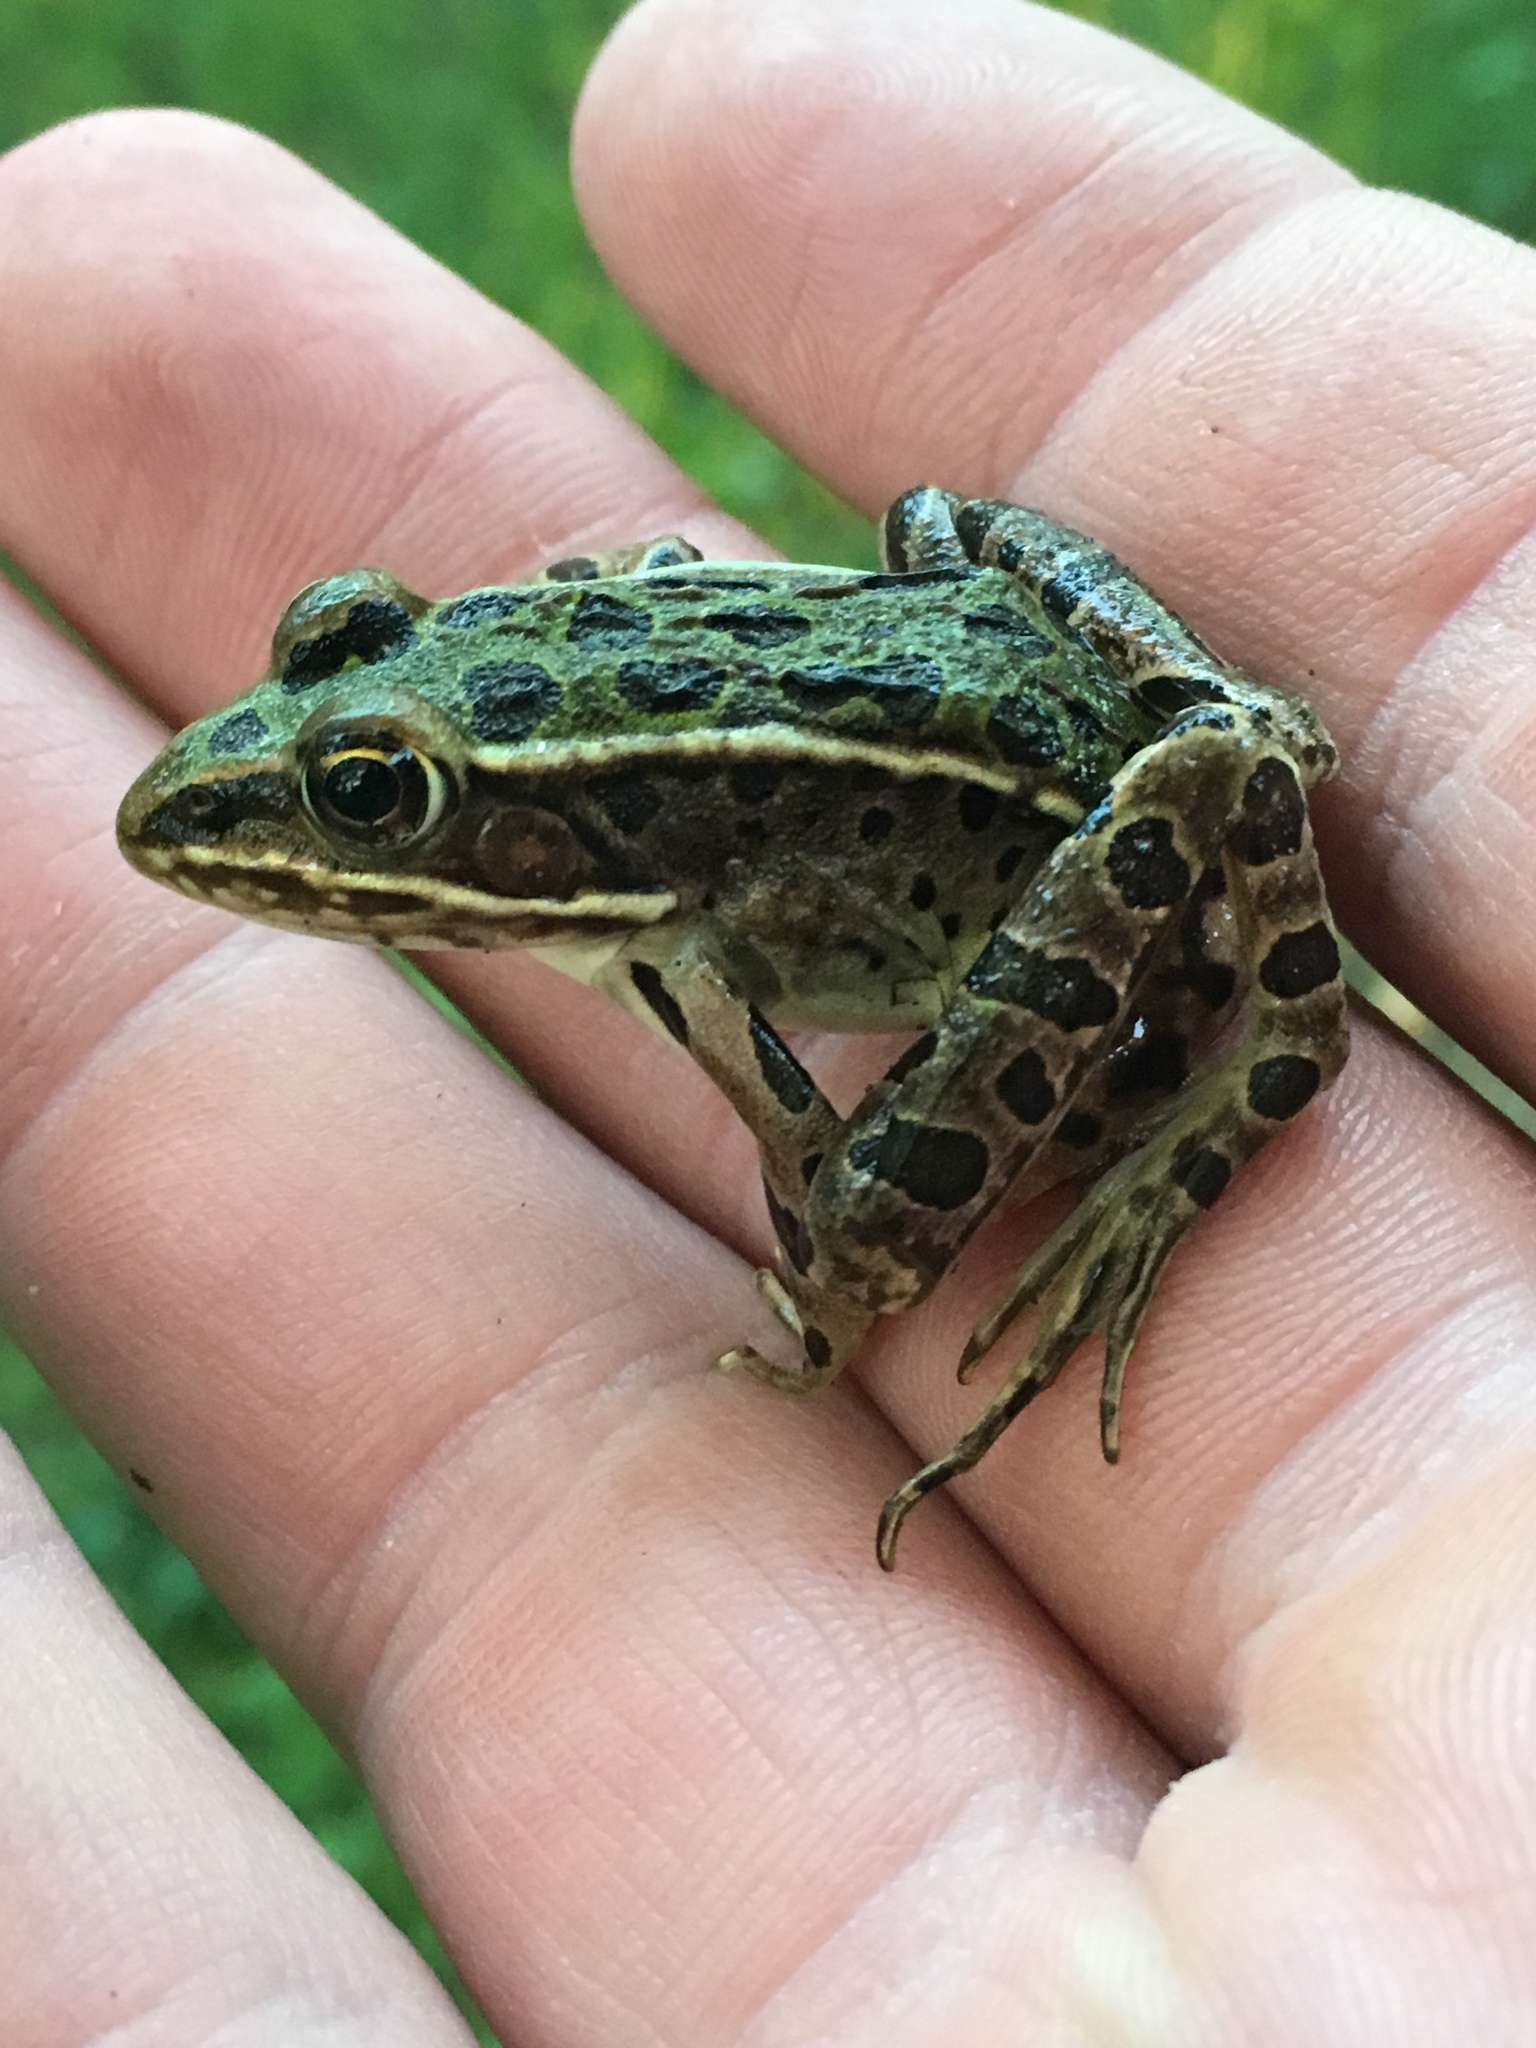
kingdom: Animalia
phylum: Chordata
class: Amphibia
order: Anura
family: Ranidae
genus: Lithobates
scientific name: Lithobates pipiens
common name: Northern leopard frog
